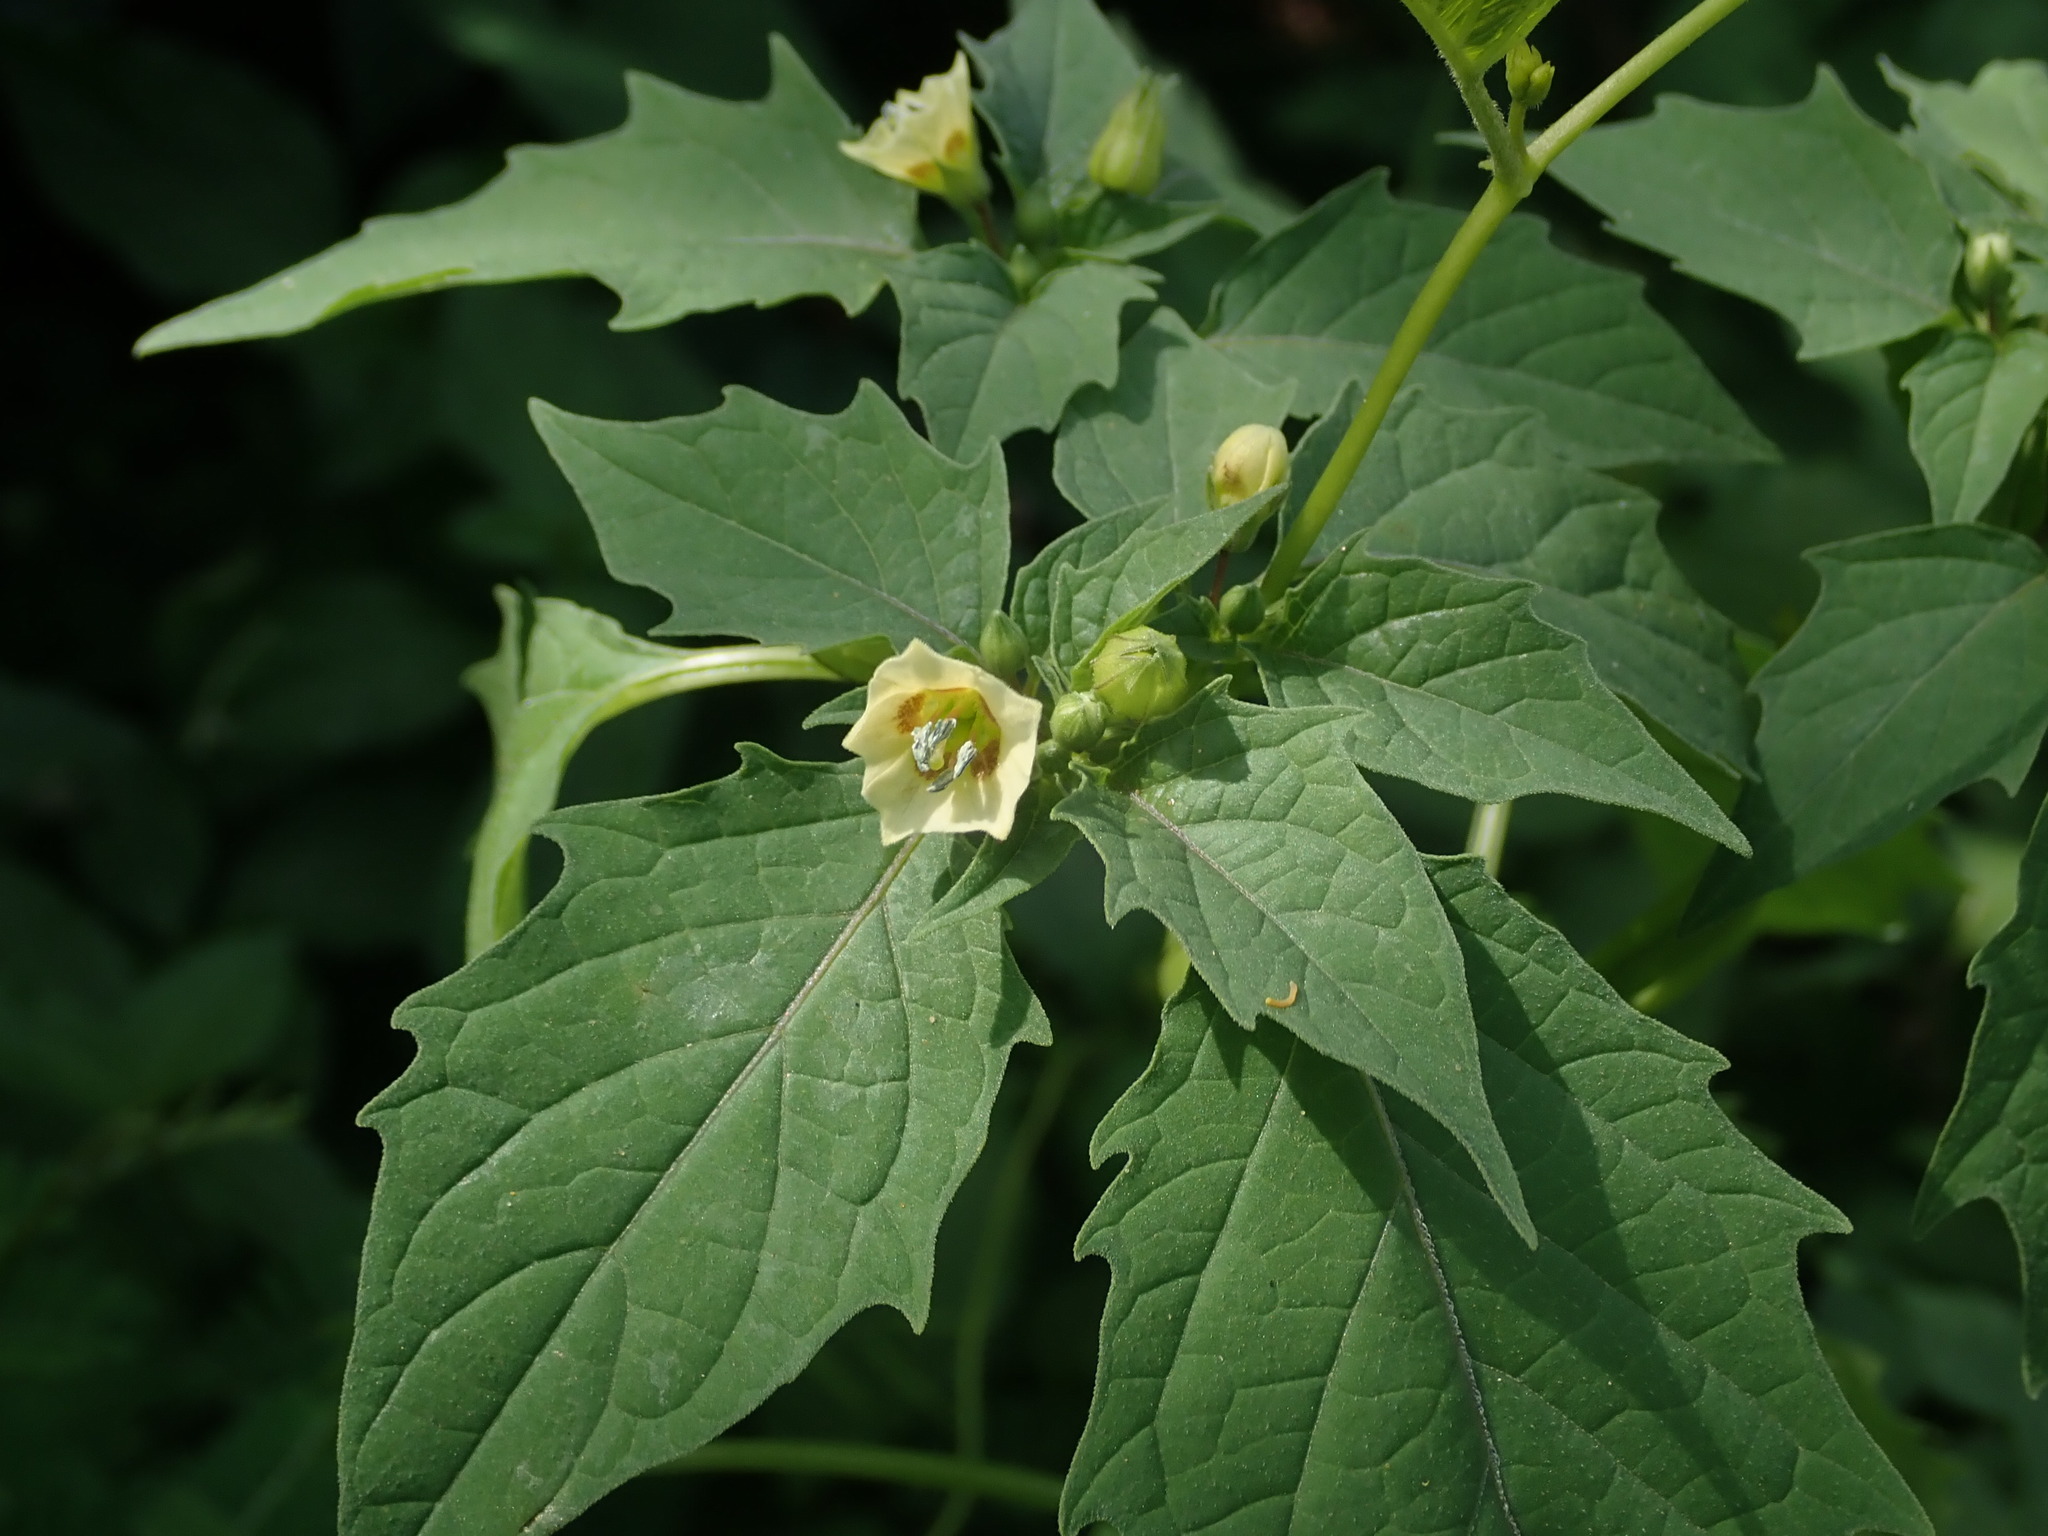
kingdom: Plantae
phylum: Tracheophyta
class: Magnoliopsida
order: Solanales
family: Solanaceae
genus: Physalis
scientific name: Physalis angulata
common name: Angular winter-cherry
